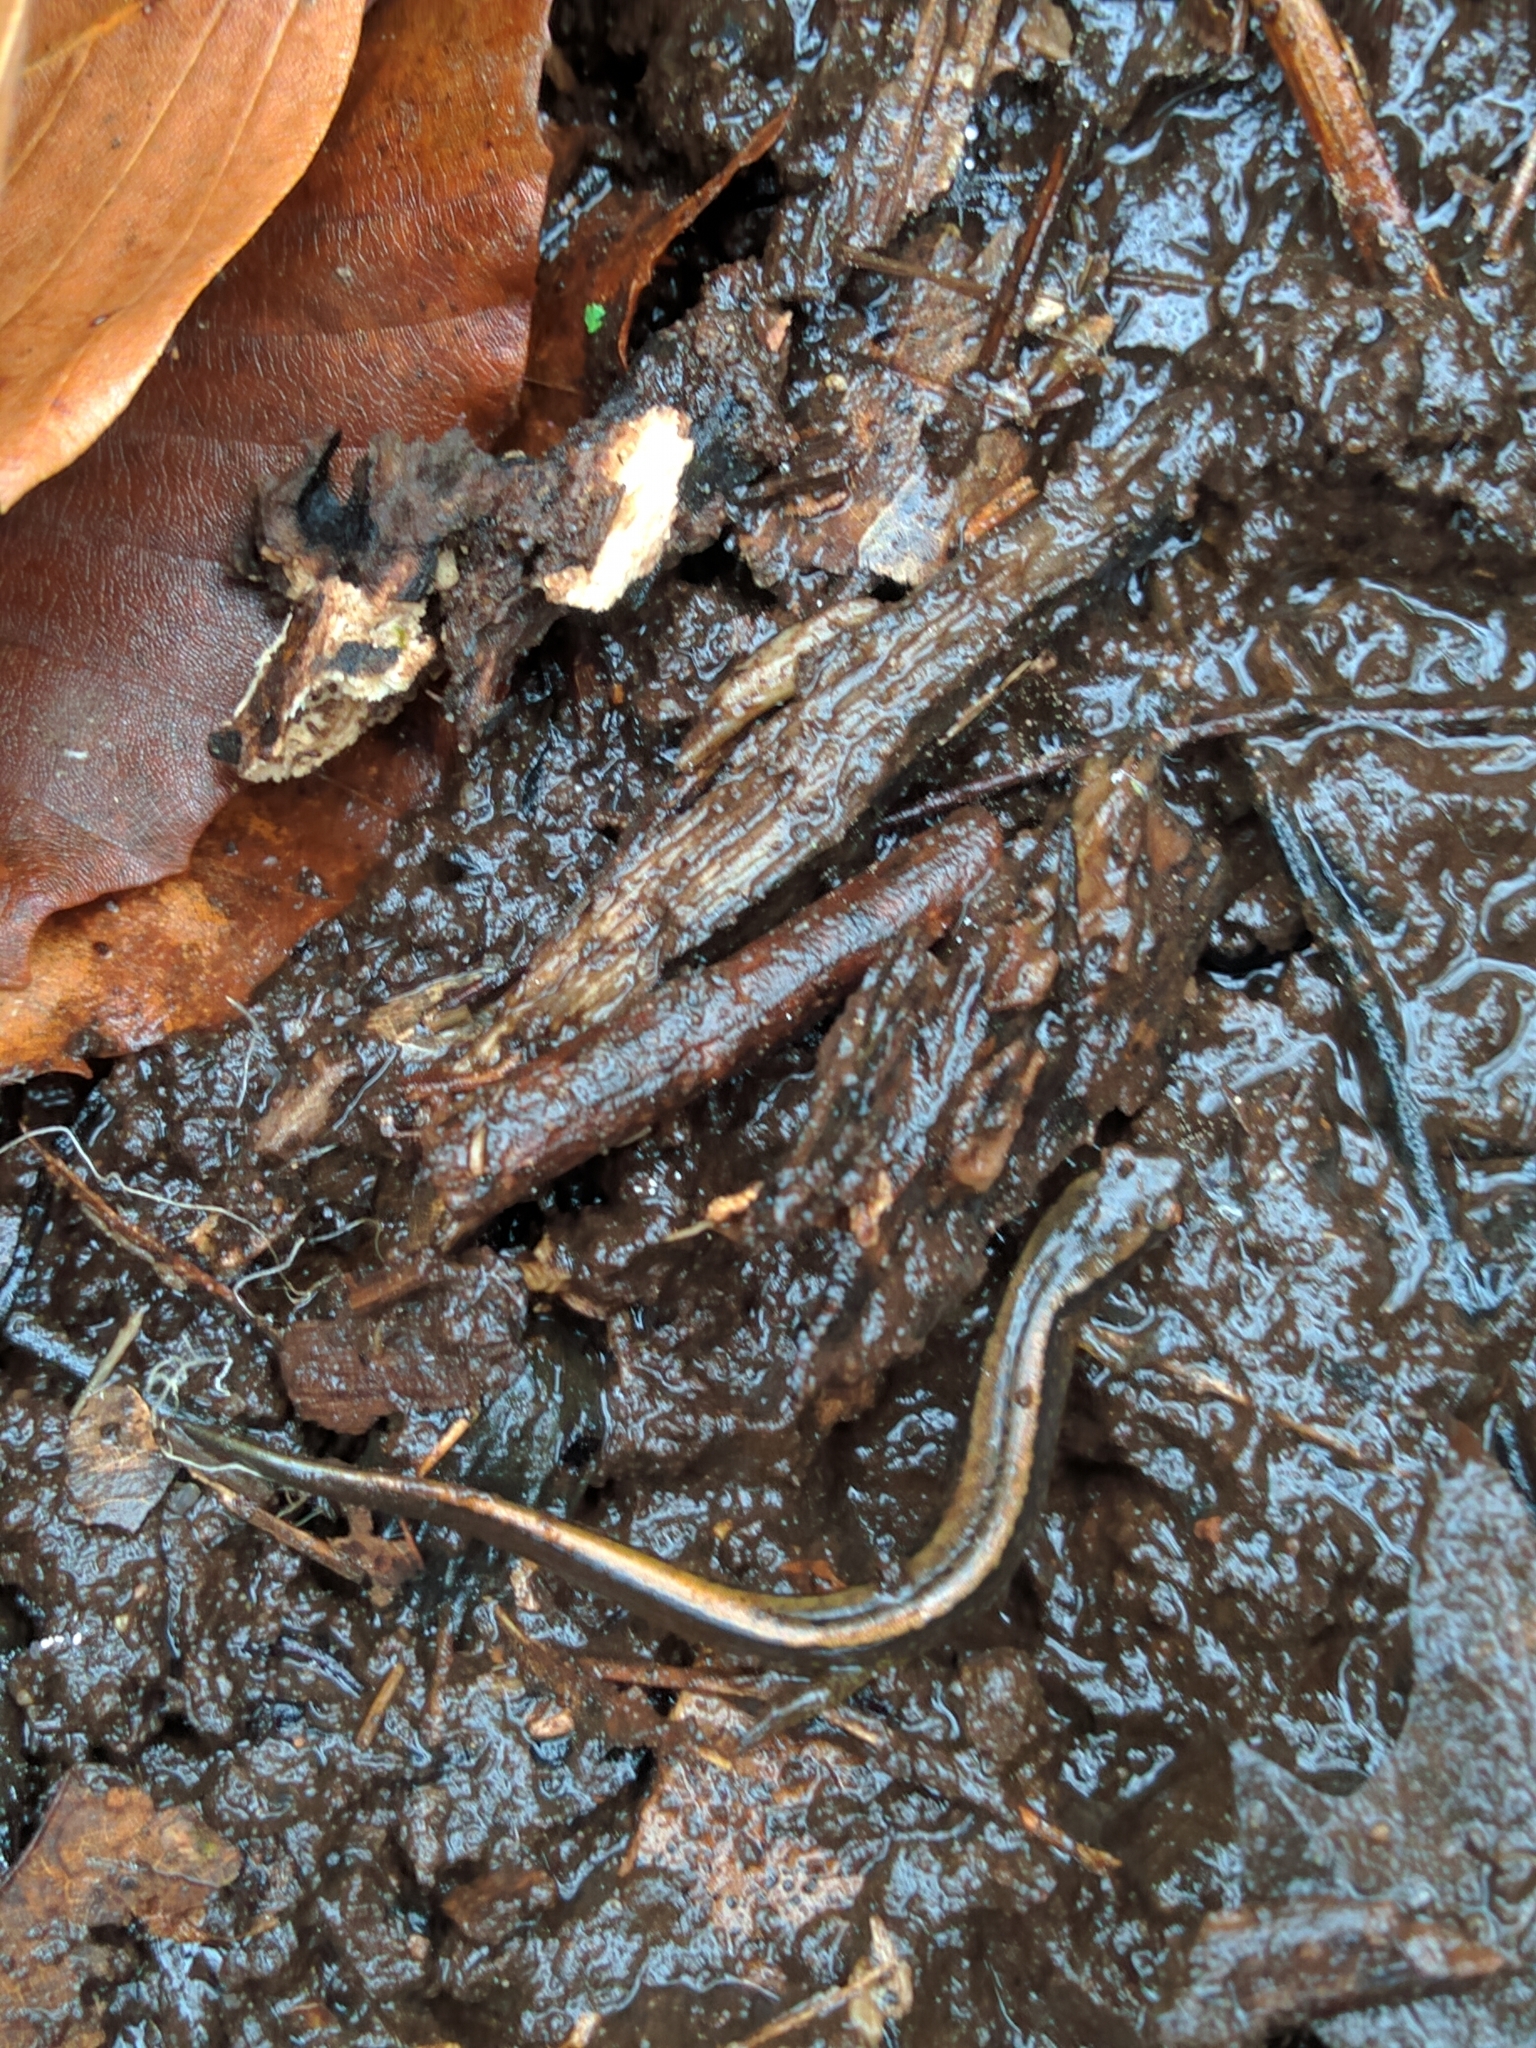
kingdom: Animalia
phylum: Chordata
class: Amphibia
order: Caudata
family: Plethodontidae
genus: Eurycea
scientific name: Eurycea bislineata
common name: Northern two-lined salamander
